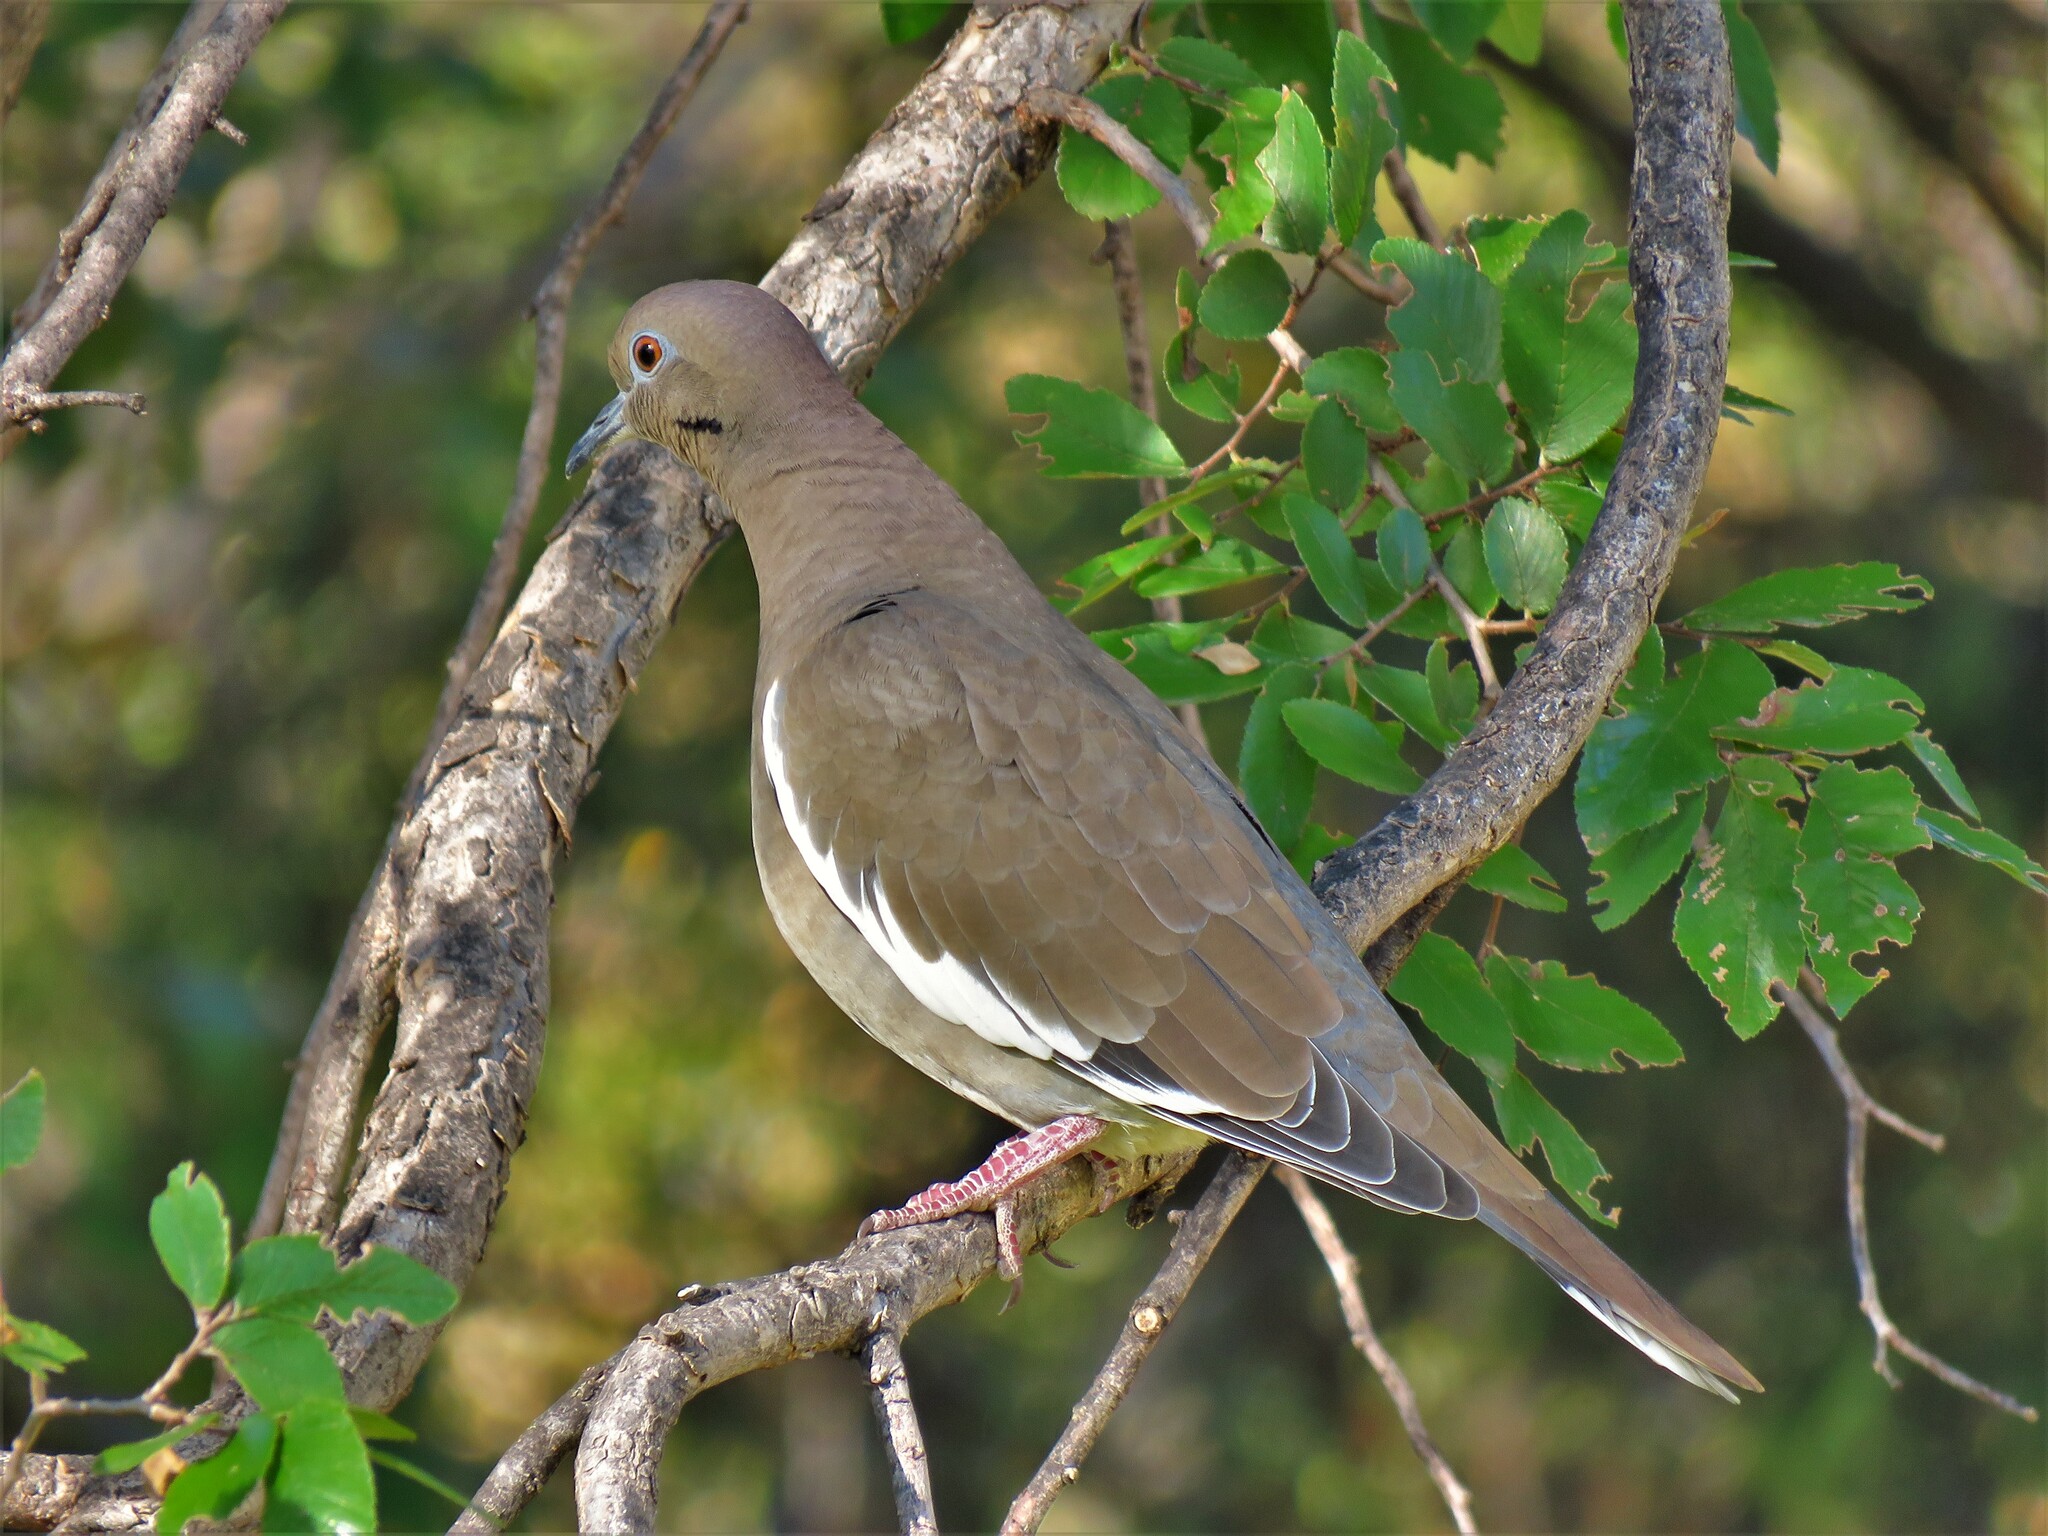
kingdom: Animalia
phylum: Chordata
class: Aves
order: Columbiformes
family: Columbidae
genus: Zenaida
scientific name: Zenaida asiatica
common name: White-winged dove
